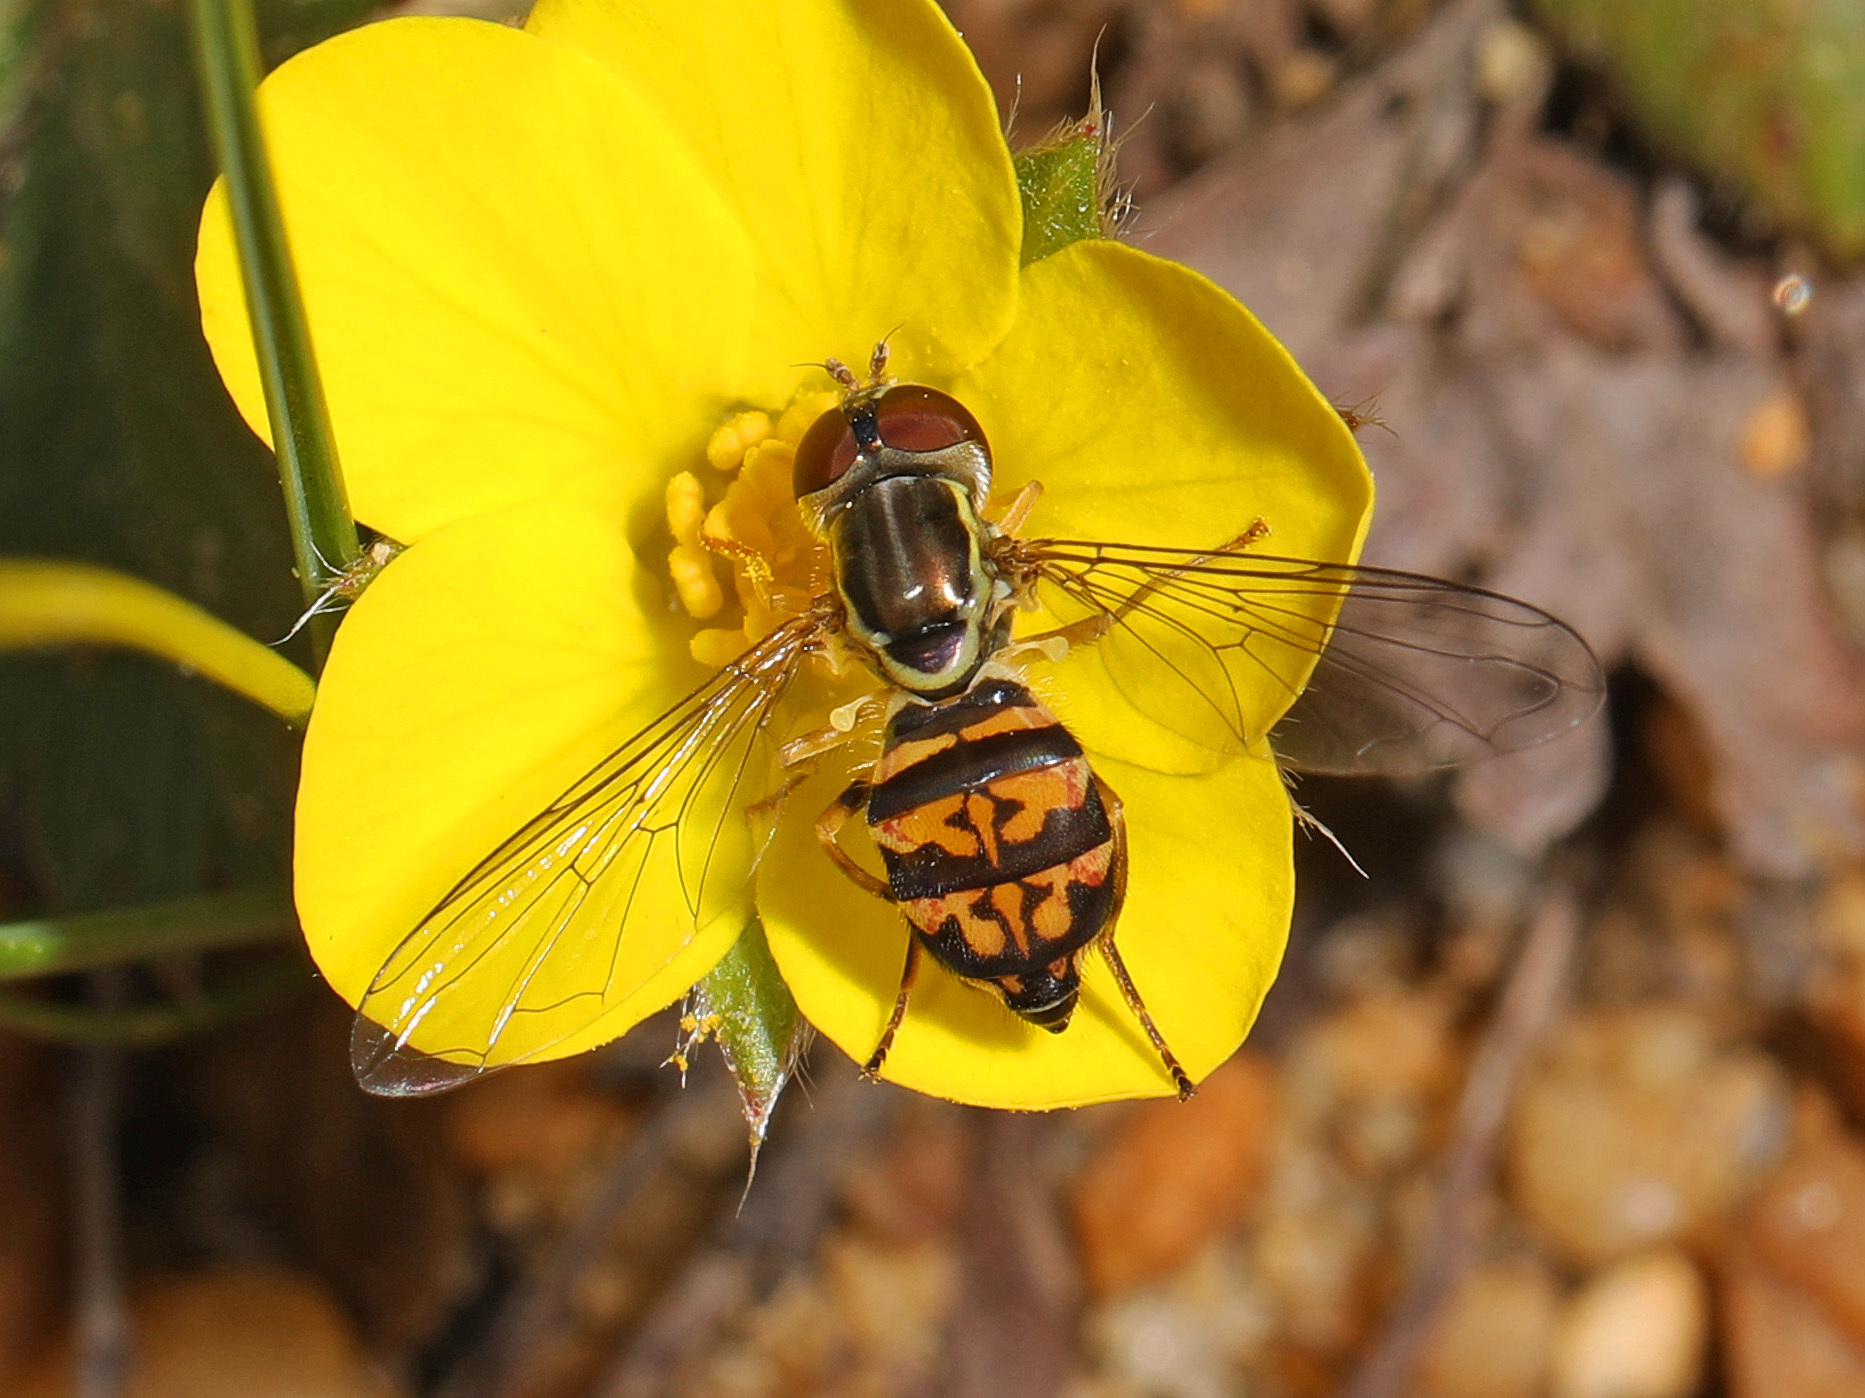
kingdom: Animalia
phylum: Arthropoda
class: Insecta
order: Diptera
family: Syrphidae
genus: Toxomerus
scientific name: Toxomerus geminatus
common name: Eastern calligrapher
